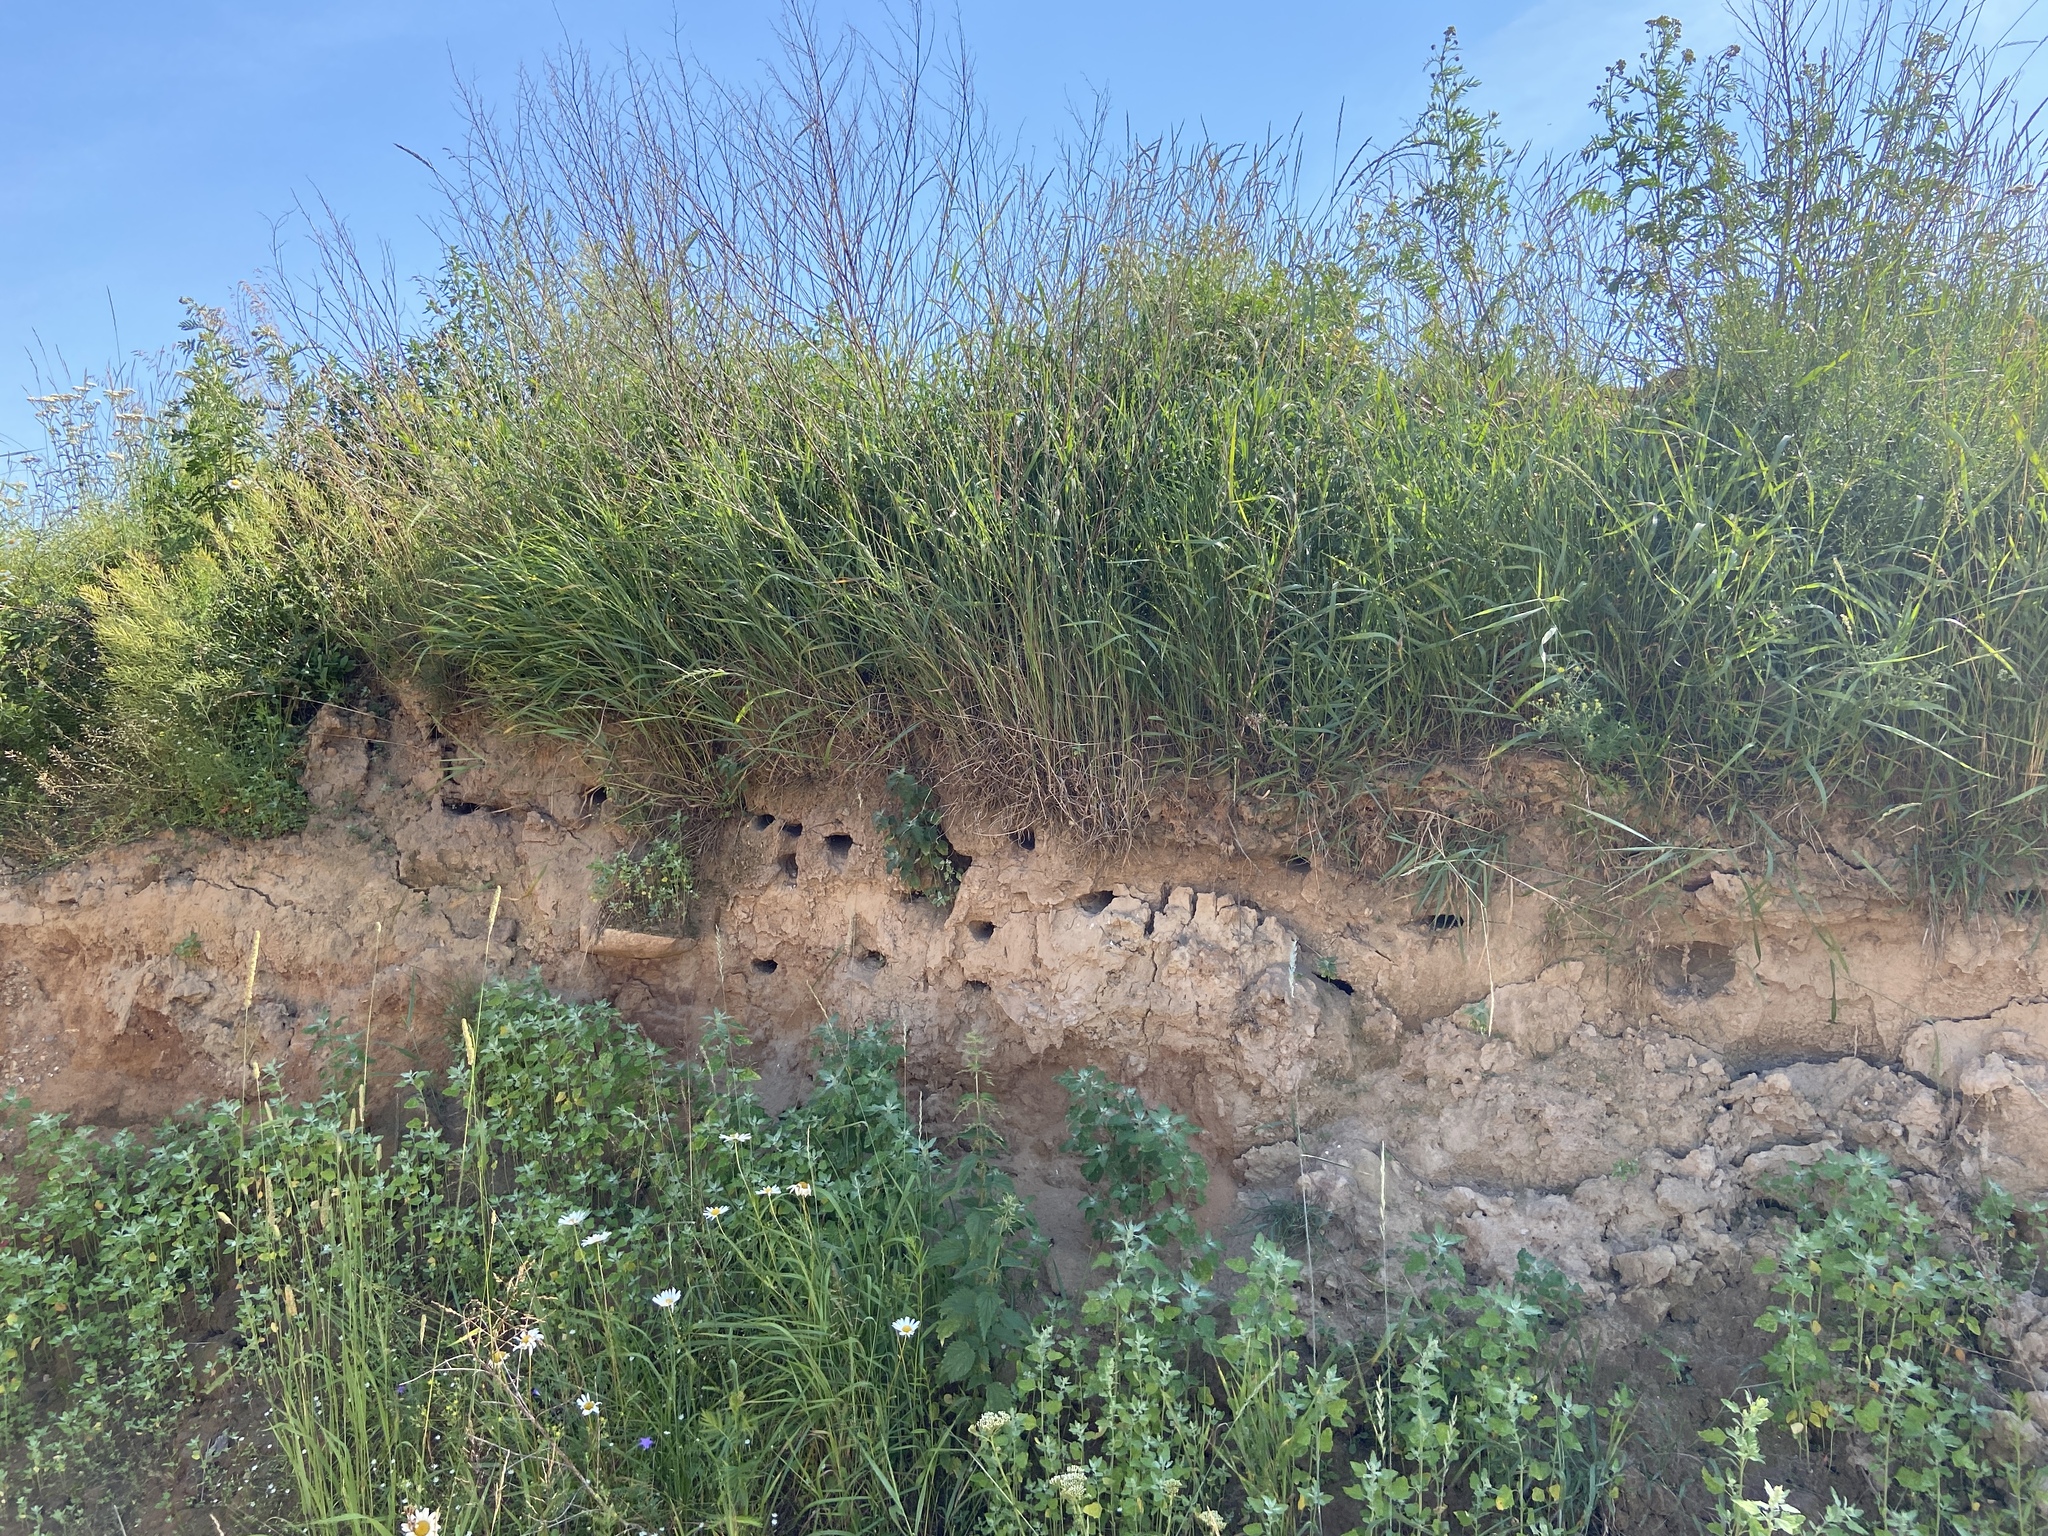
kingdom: Animalia
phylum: Chordata
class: Aves
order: Passeriformes
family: Hirundinidae
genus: Riparia
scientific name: Riparia riparia
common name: Sand martin
